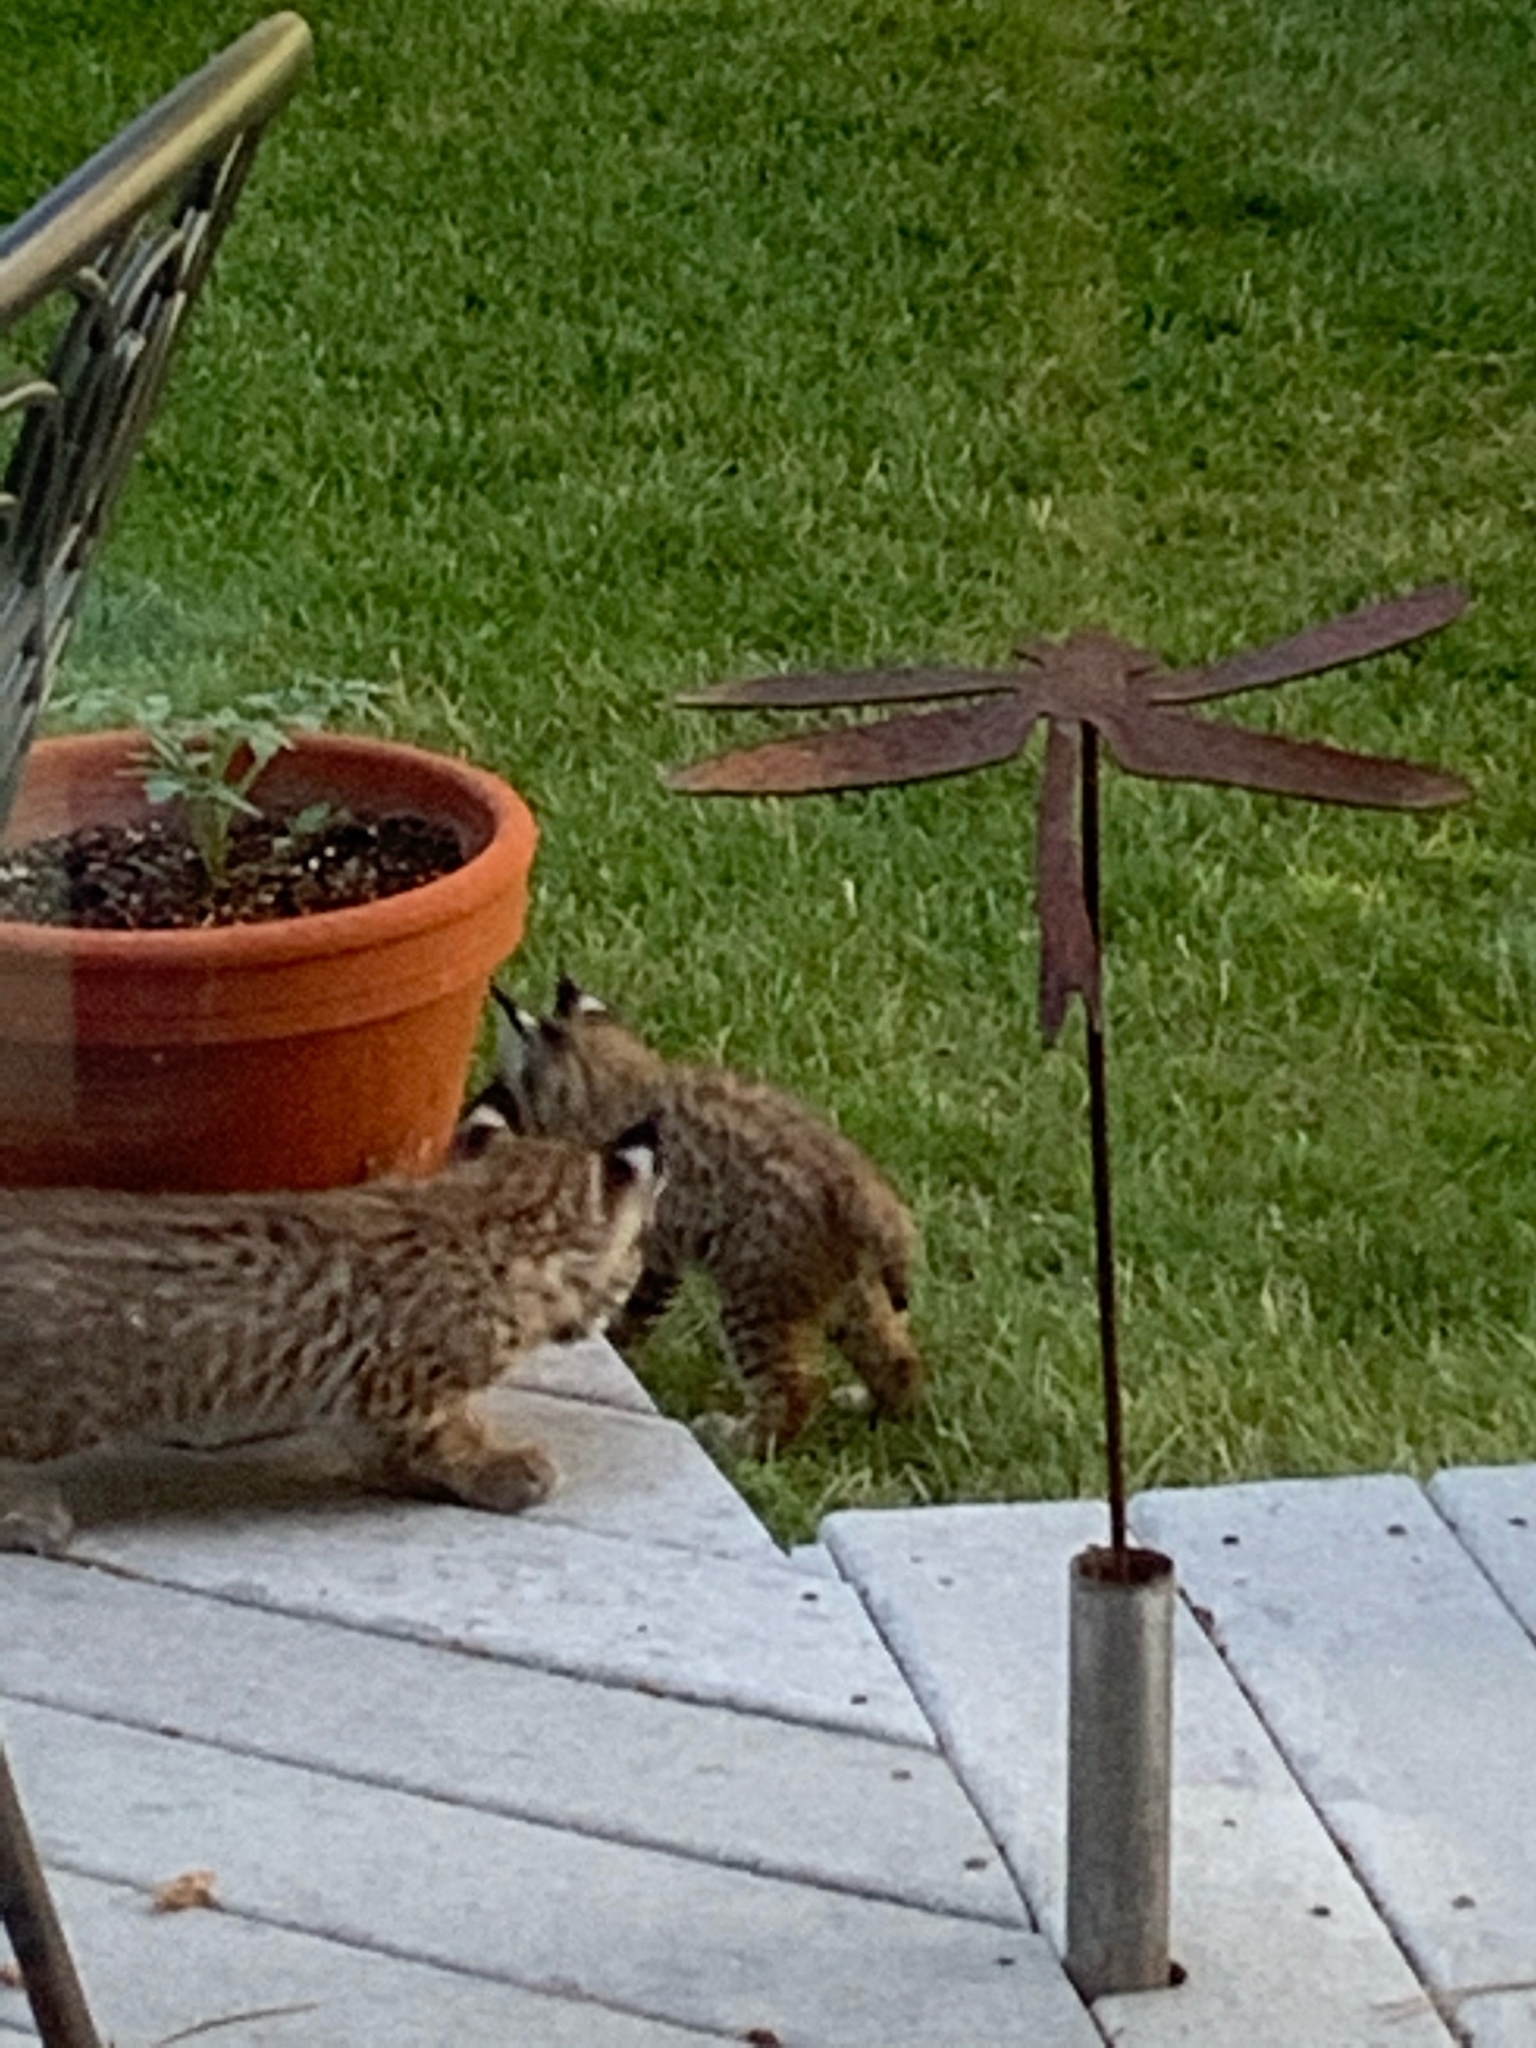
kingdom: Animalia
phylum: Chordata
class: Mammalia
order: Carnivora
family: Felidae
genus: Lynx
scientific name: Lynx rufus
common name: Bobcat
